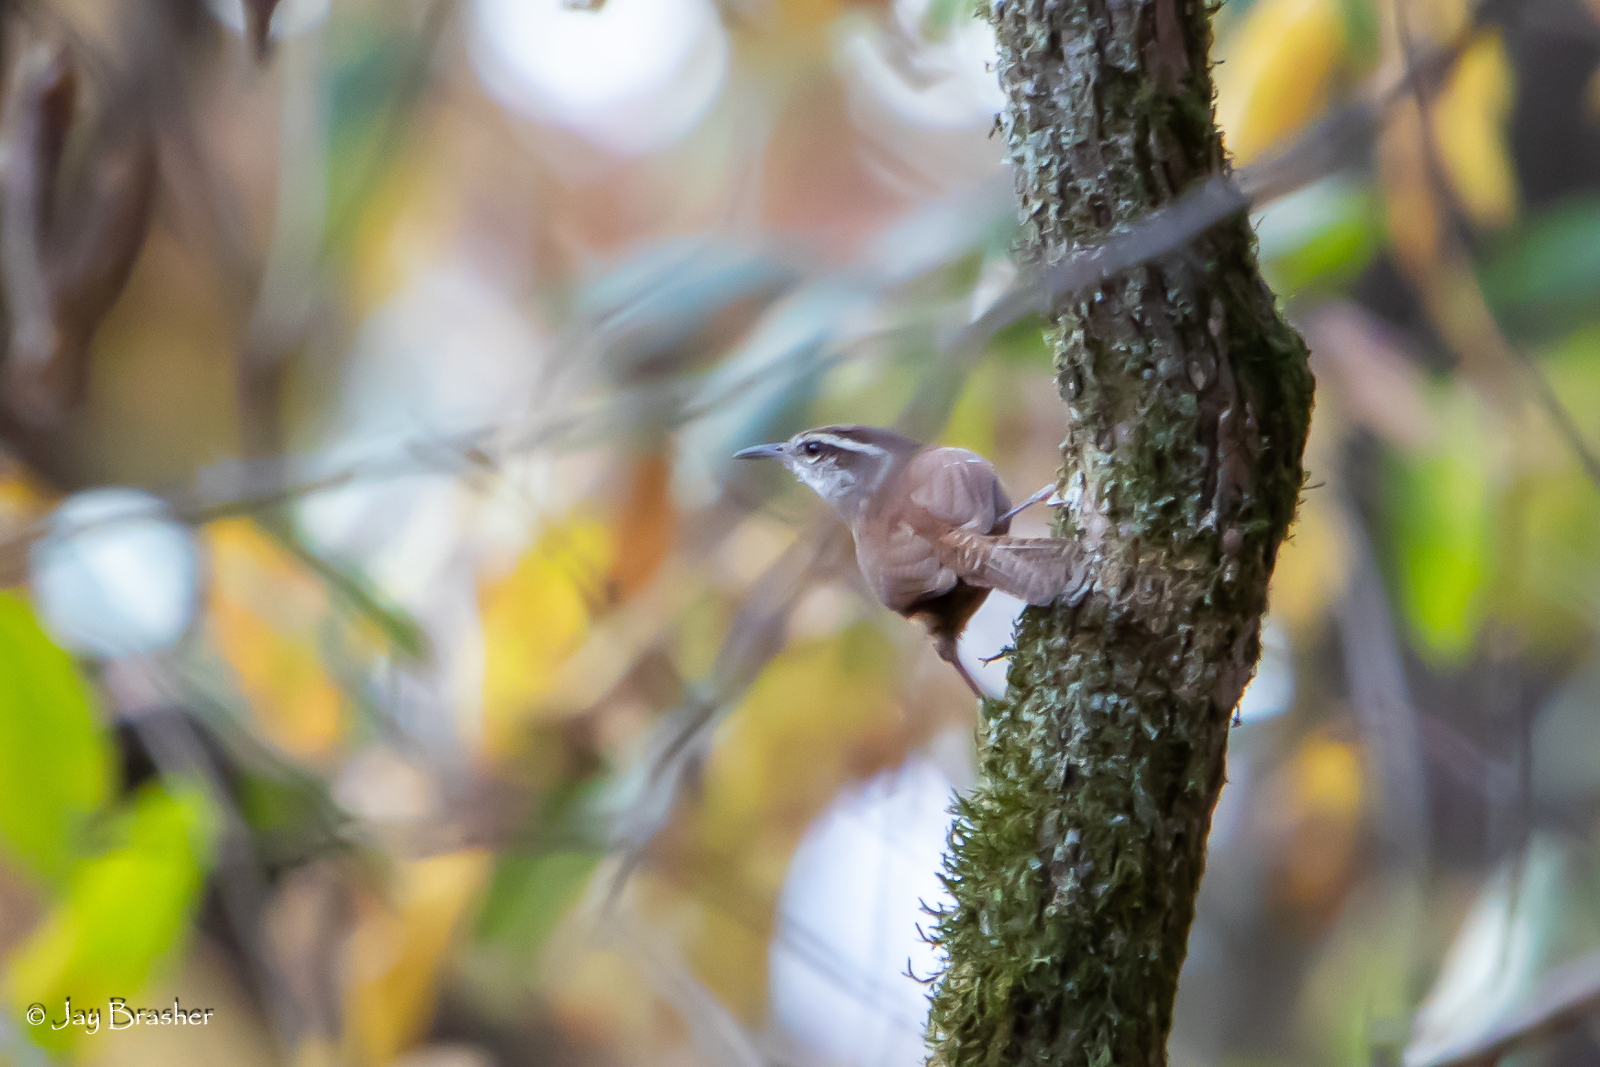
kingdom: Animalia
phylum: Chordata
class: Aves
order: Passeriformes
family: Troglodytidae
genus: Thryothorus
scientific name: Thryothorus ludovicianus
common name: Carolina wren
